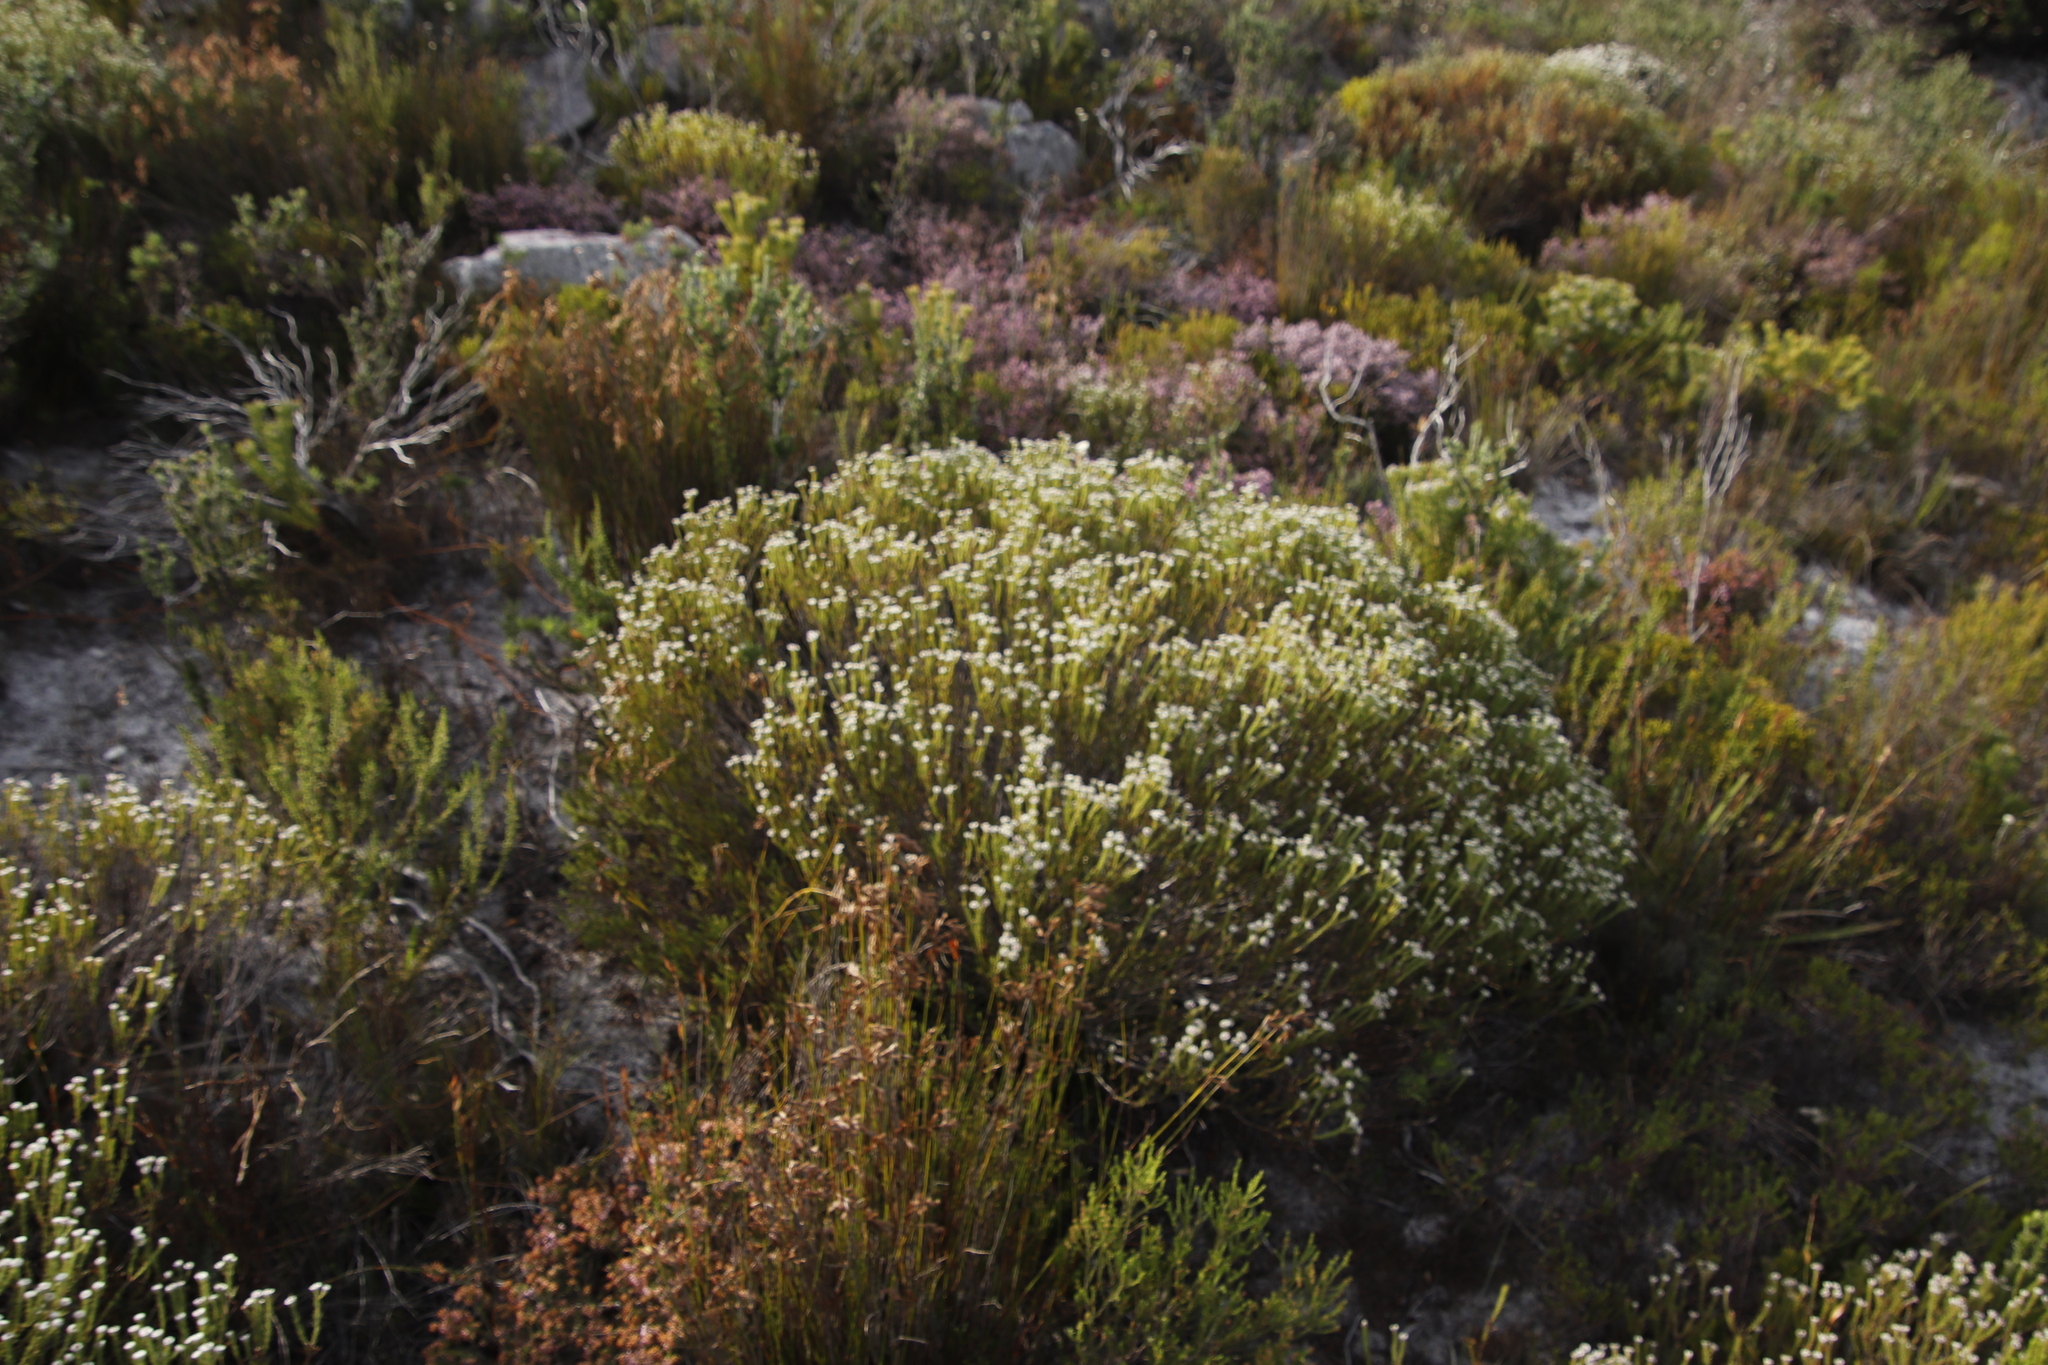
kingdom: Plantae
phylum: Tracheophyta
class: Magnoliopsida
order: Bruniales
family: Bruniaceae
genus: Staavia
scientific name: Staavia radiata
